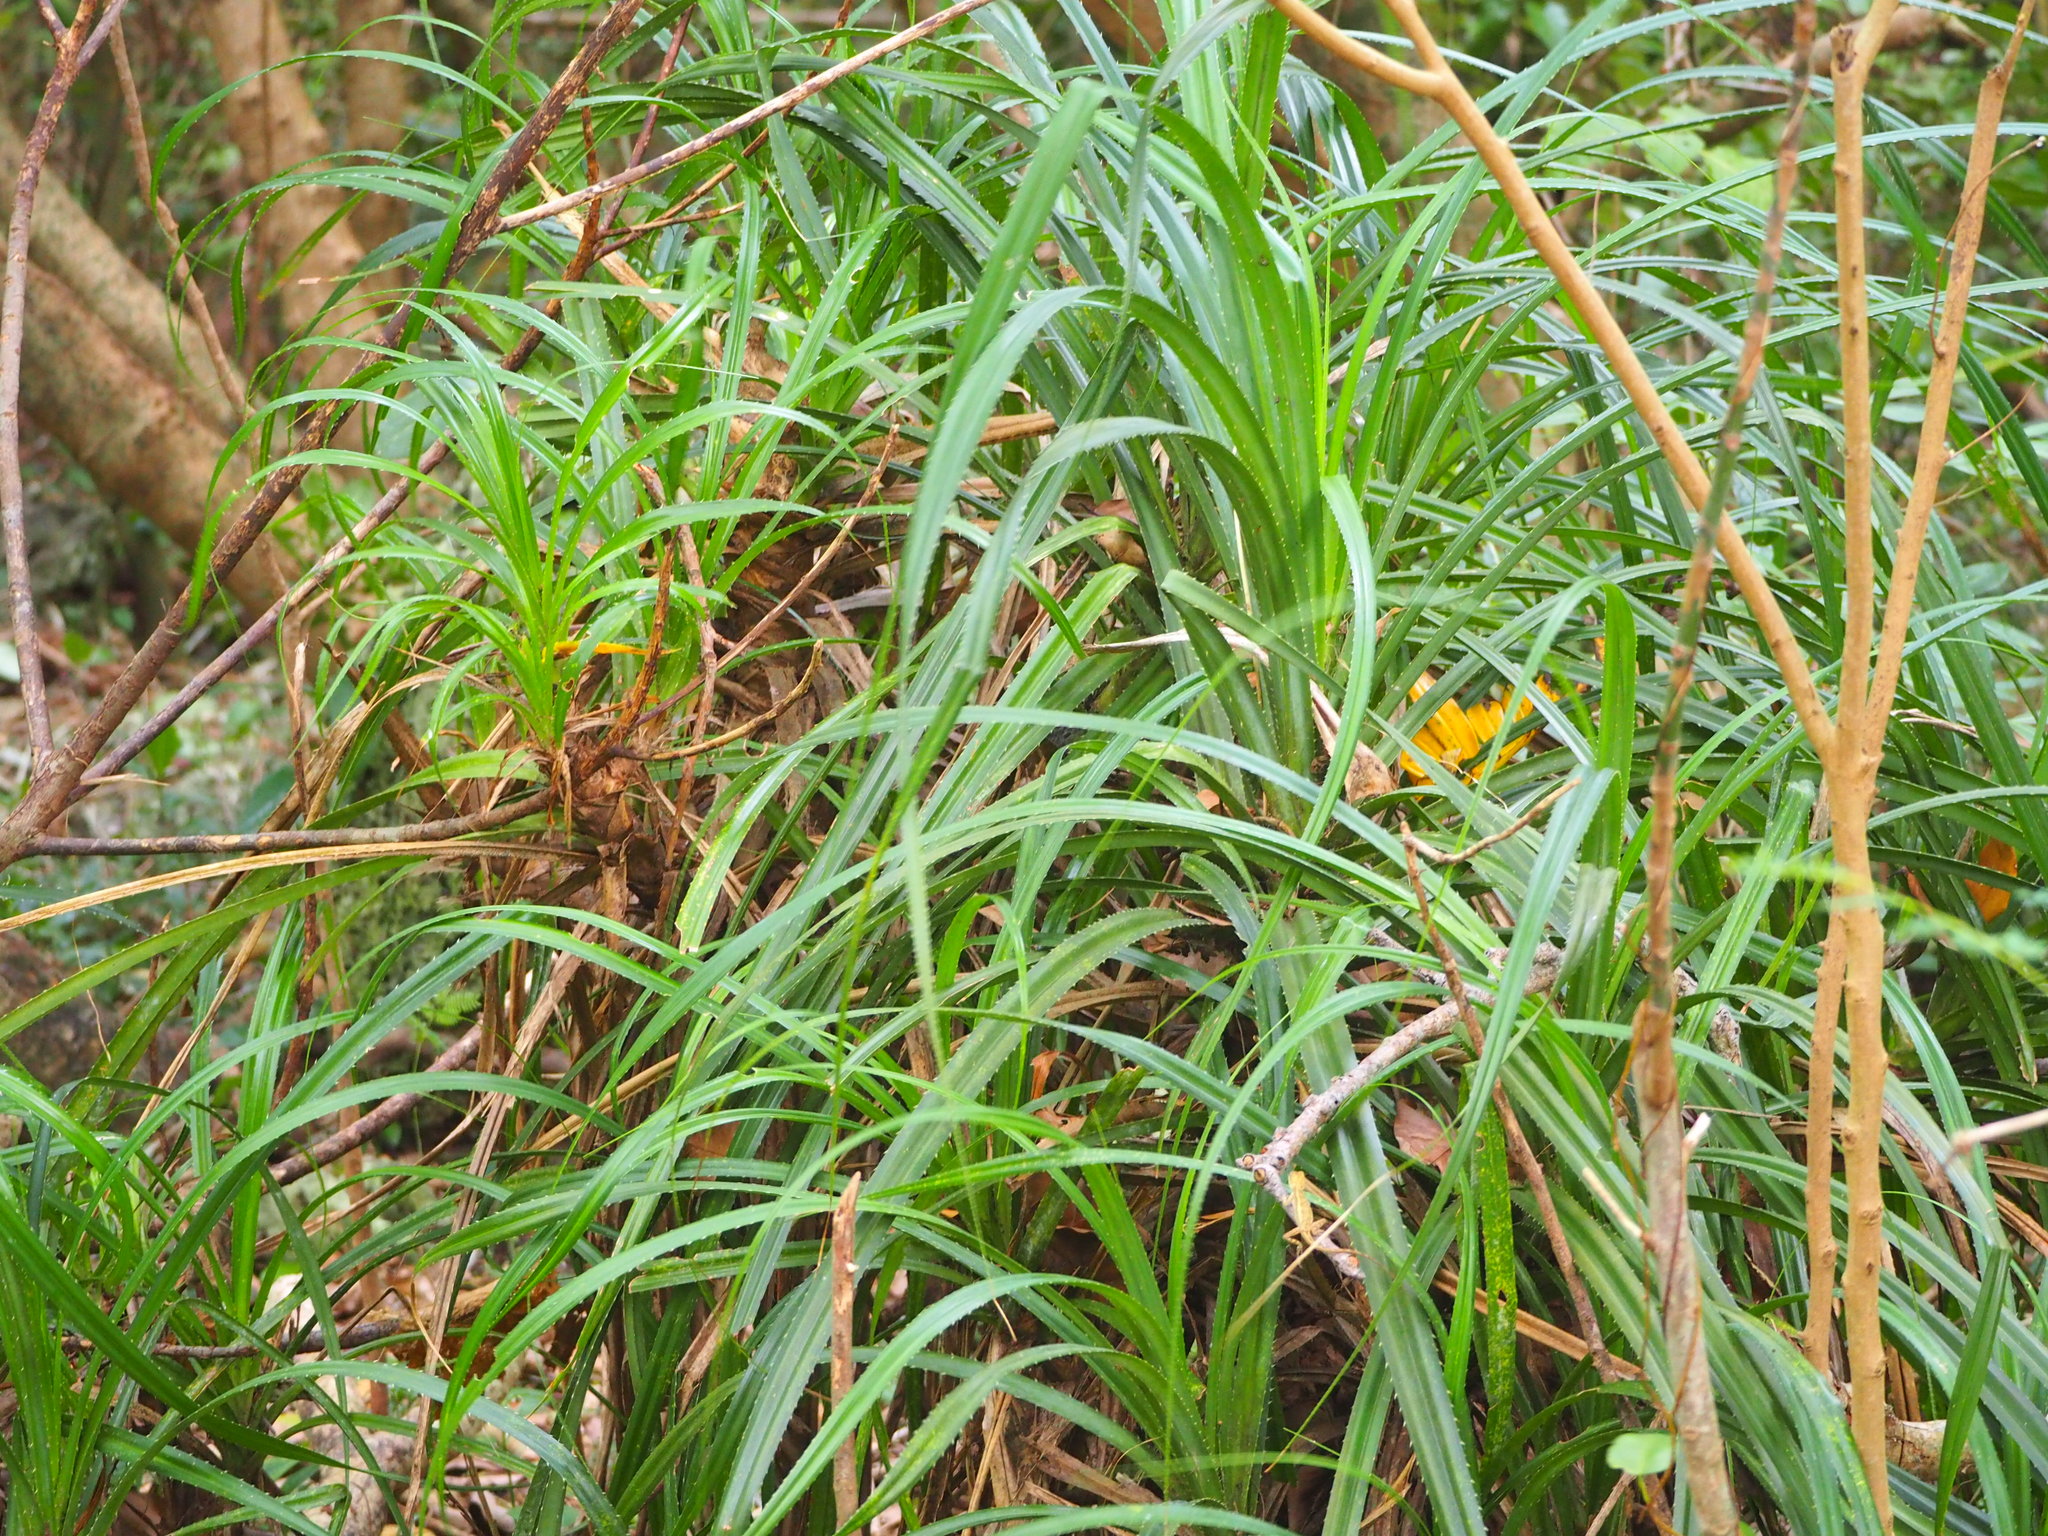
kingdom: Plantae
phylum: Tracheophyta
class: Liliopsida
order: Pandanales
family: Pandanaceae
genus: Pandanus
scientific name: Pandanus odorifer
